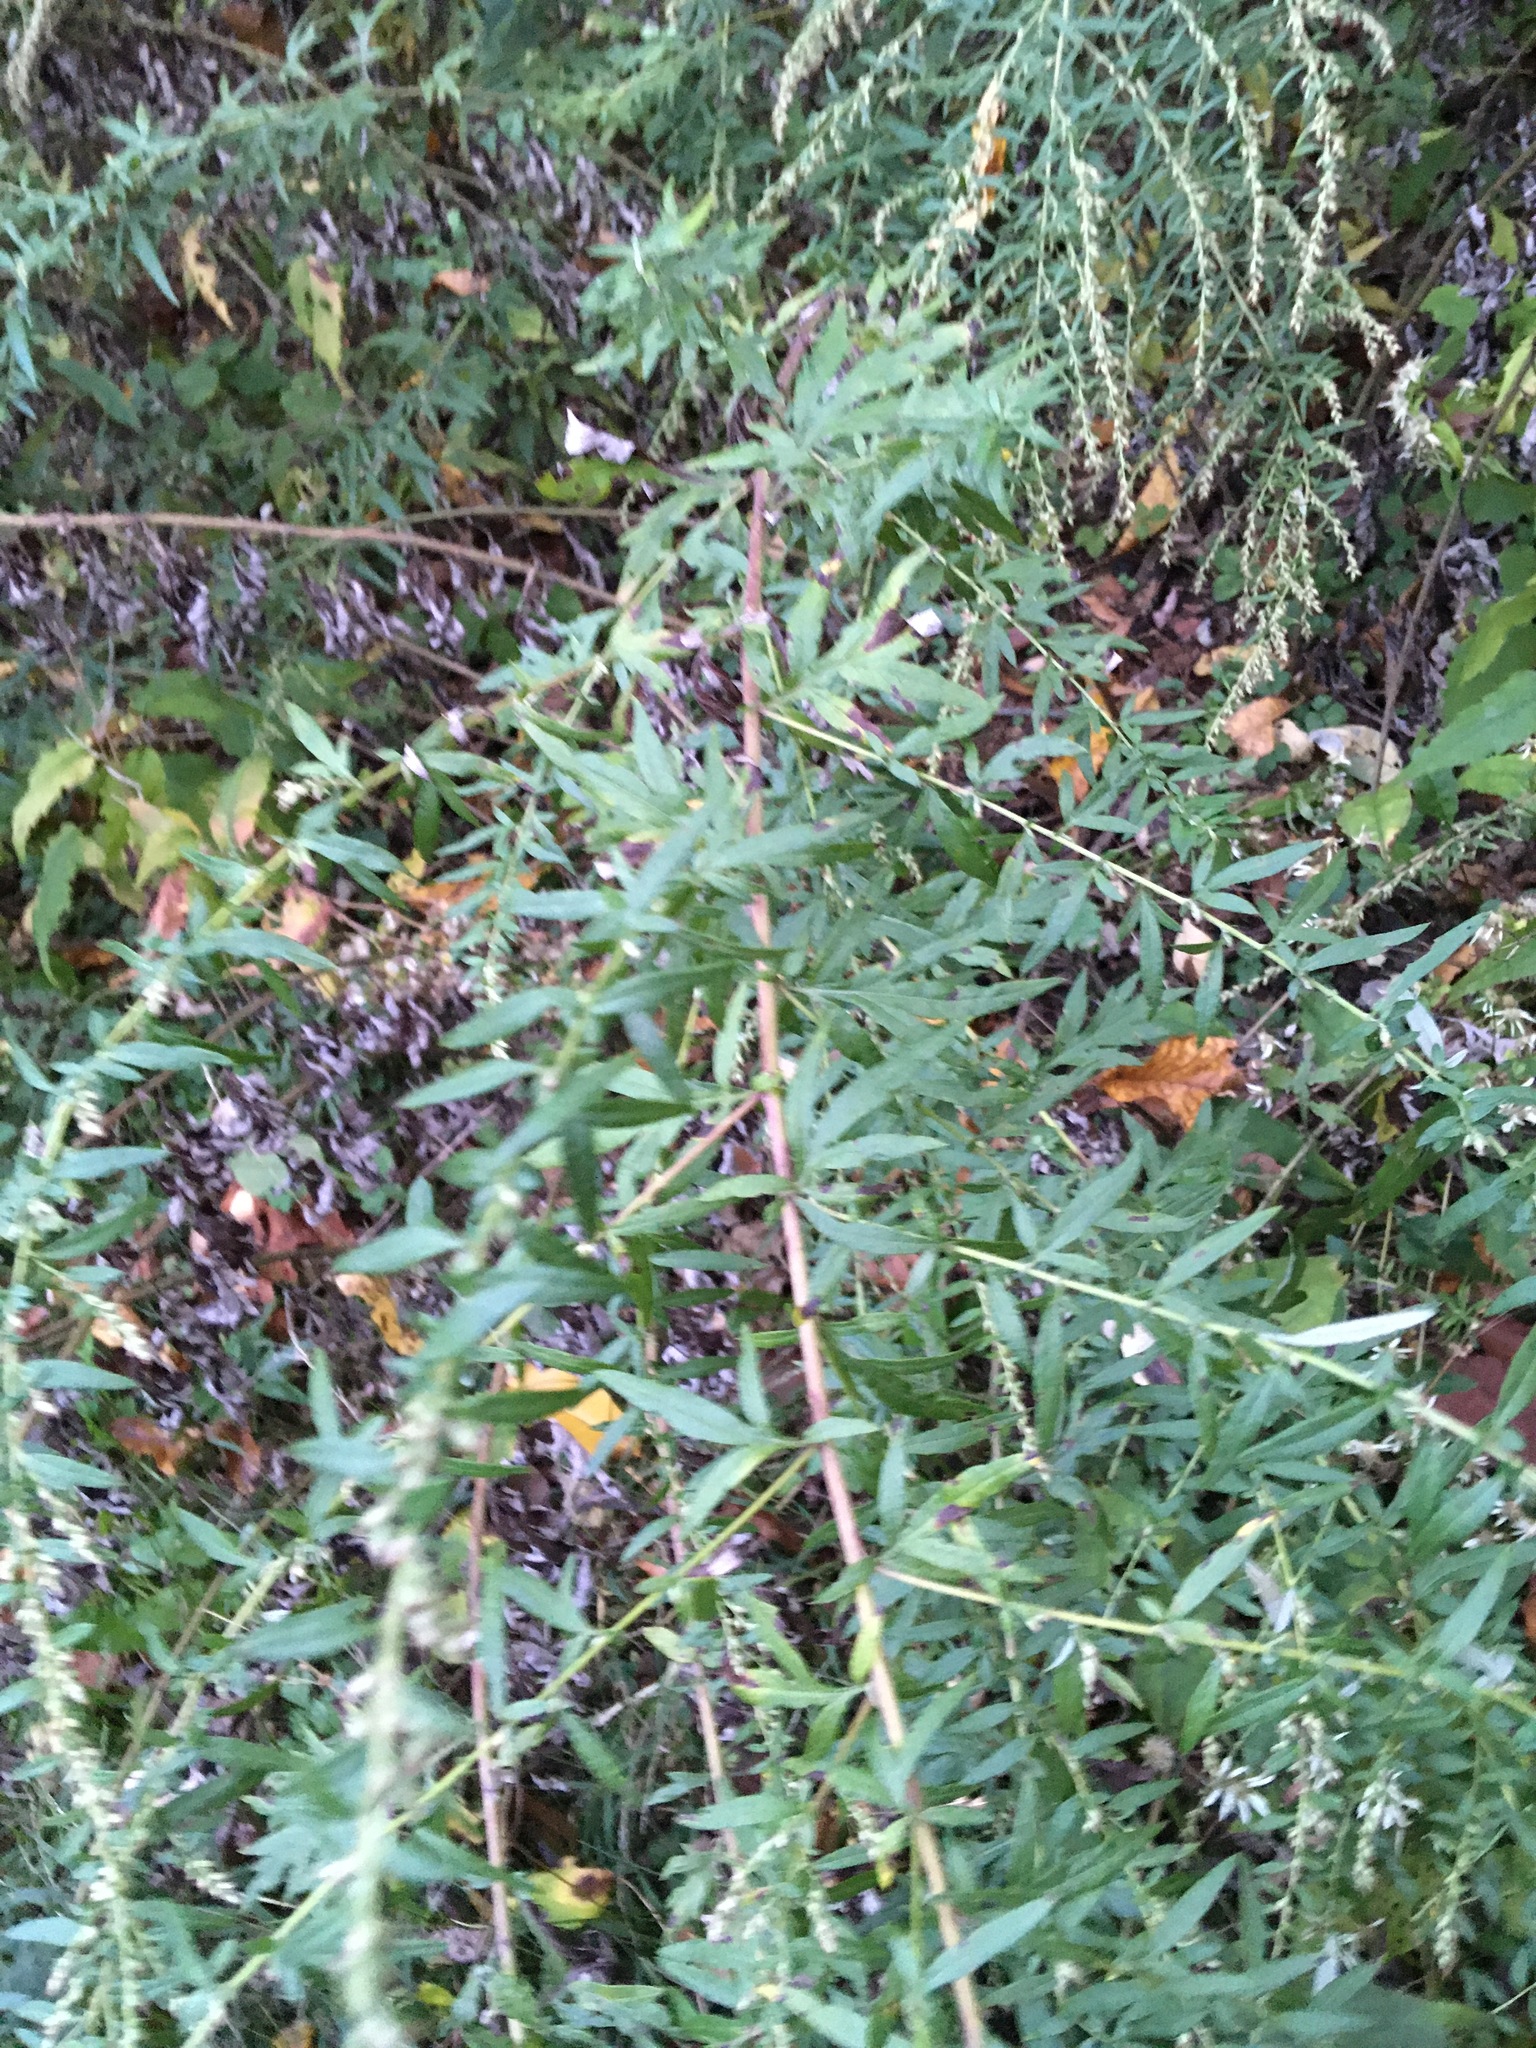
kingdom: Plantae
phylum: Tracheophyta
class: Magnoliopsida
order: Asterales
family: Asteraceae
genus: Artemisia
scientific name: Artemisia vulgaris
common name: Mugwort
